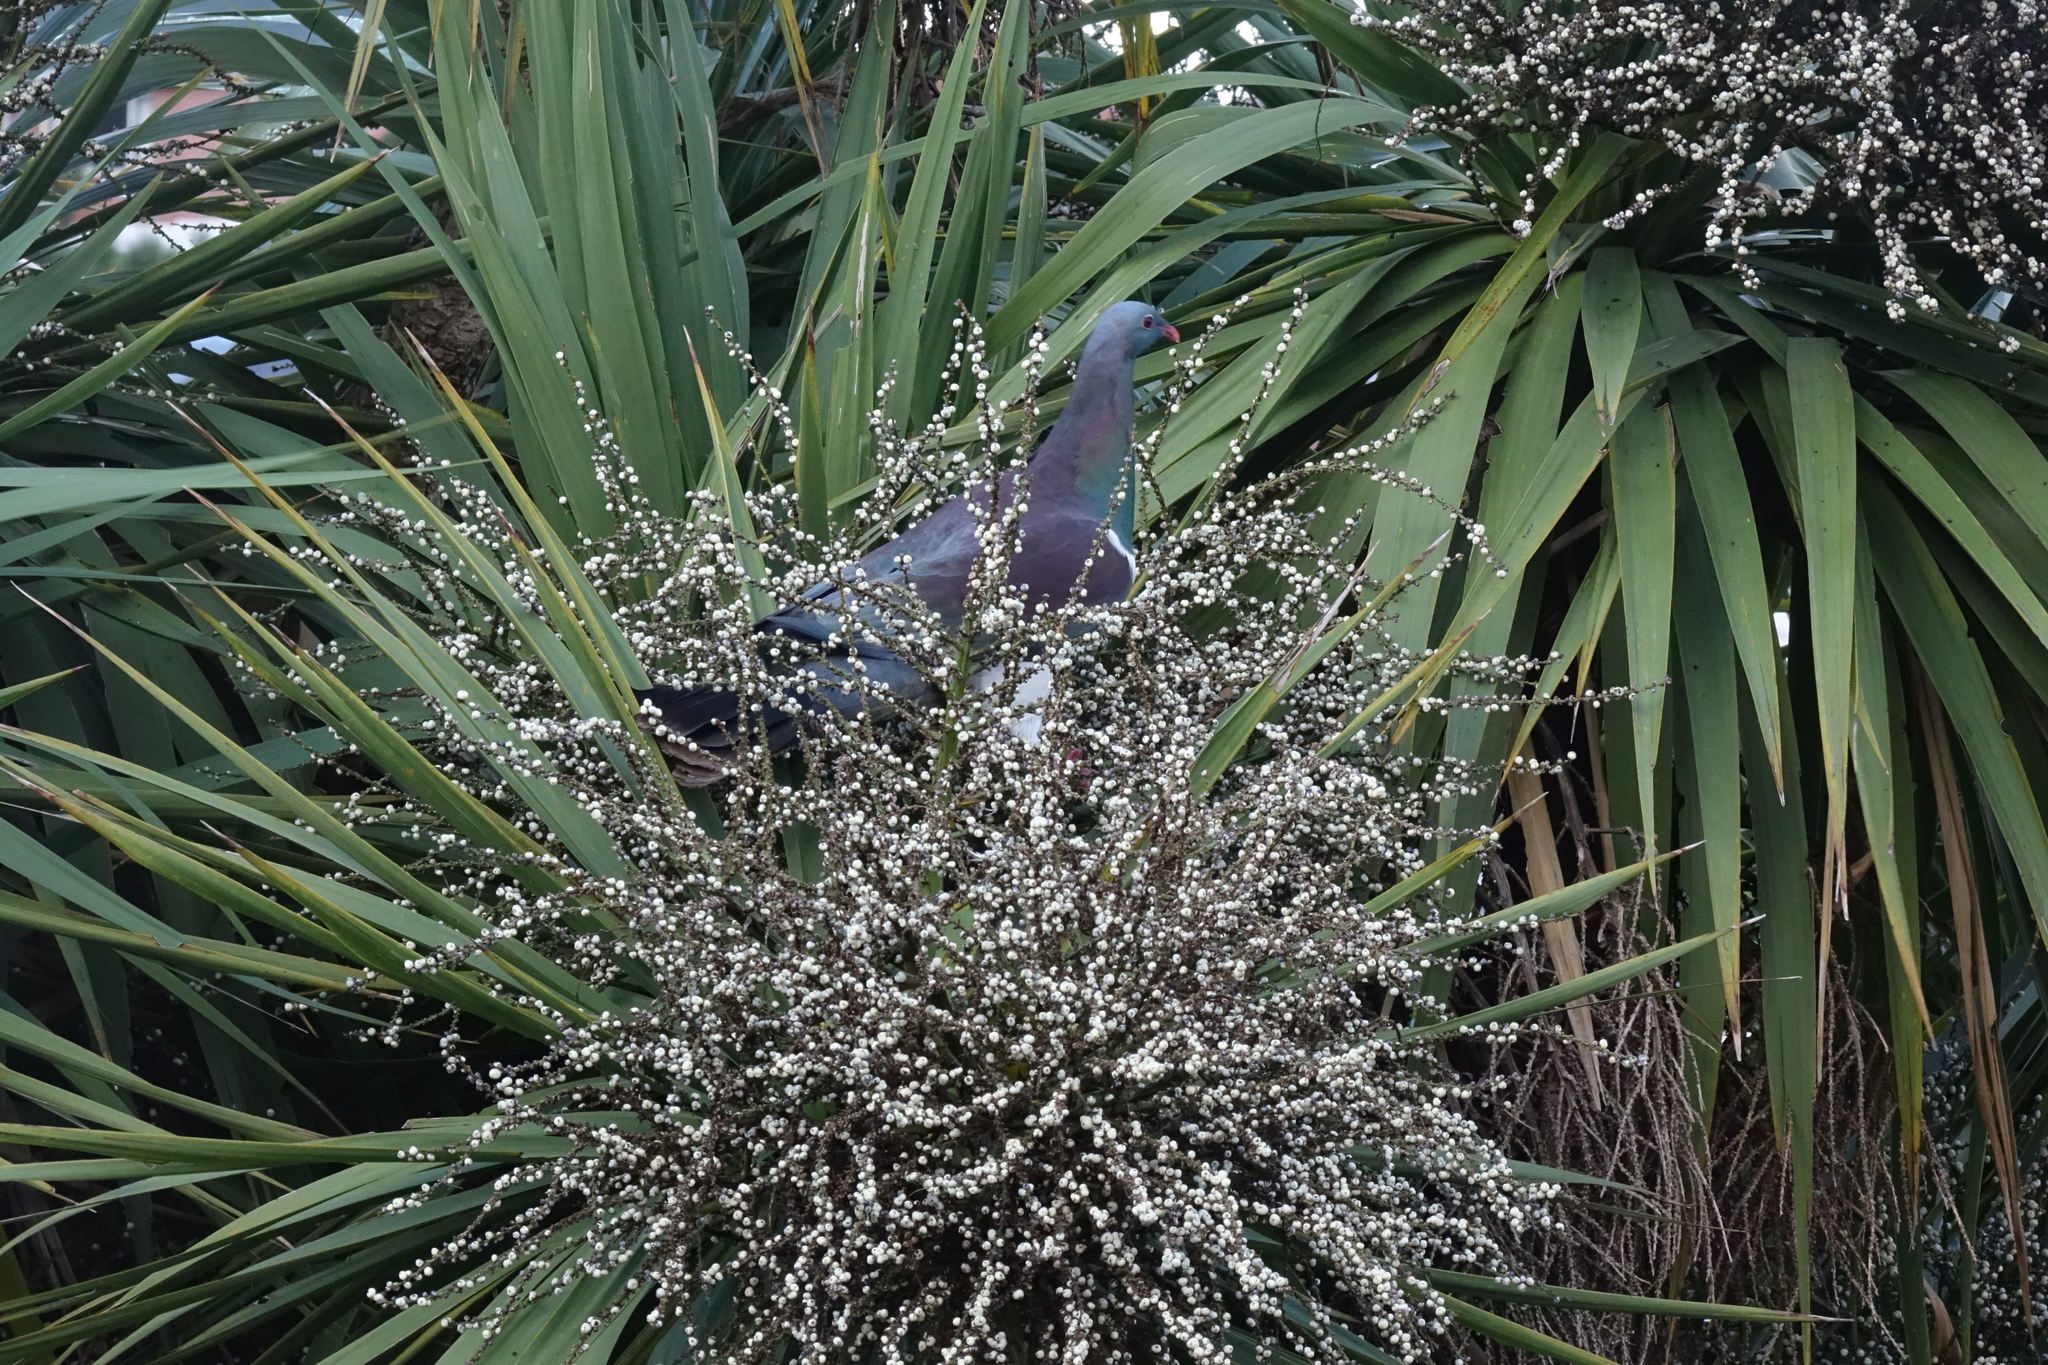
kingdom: Animalia
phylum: Chordata
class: Aves
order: Columbiformes
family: Columbidae
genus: Hemiphaga
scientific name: Hemiphaga novaeseelandiae
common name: New zealand pigeon
